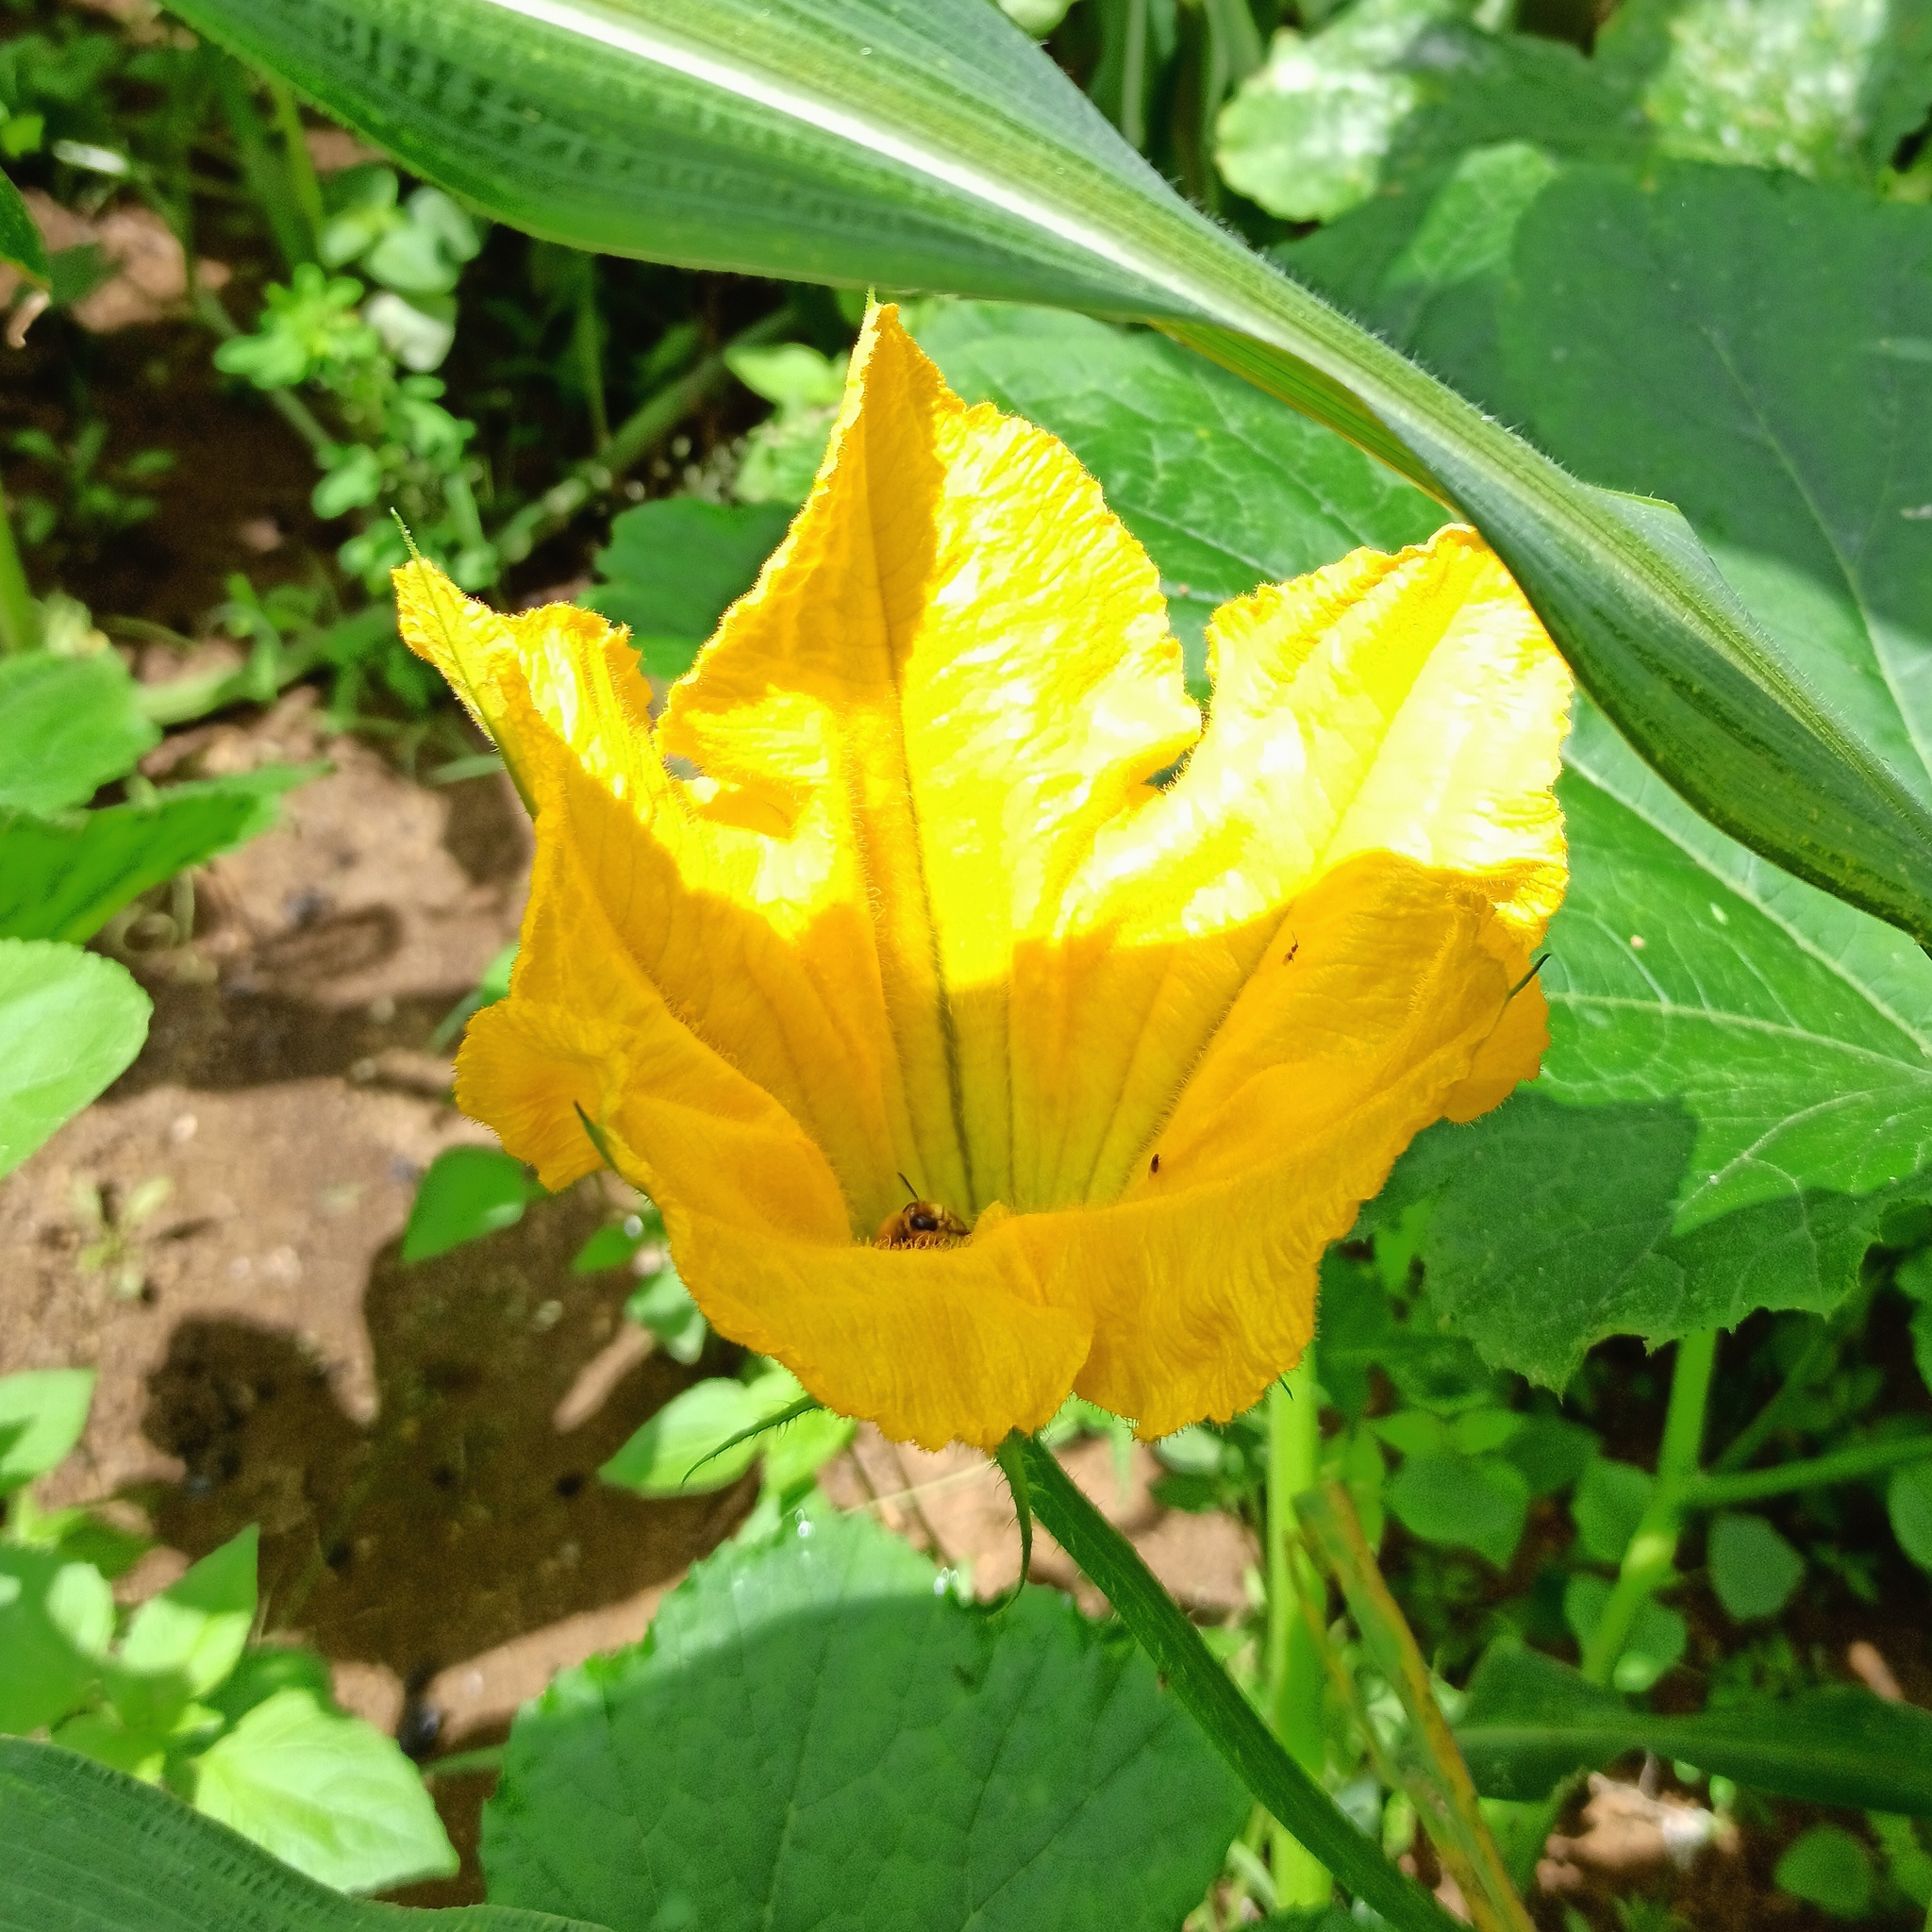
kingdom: Plantae
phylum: Tracheophyta
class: Magnoliopsida
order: Cucurbitales
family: Cucurbitaceae
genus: Cucurbita
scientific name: Cucurbita pepo
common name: Marrow
